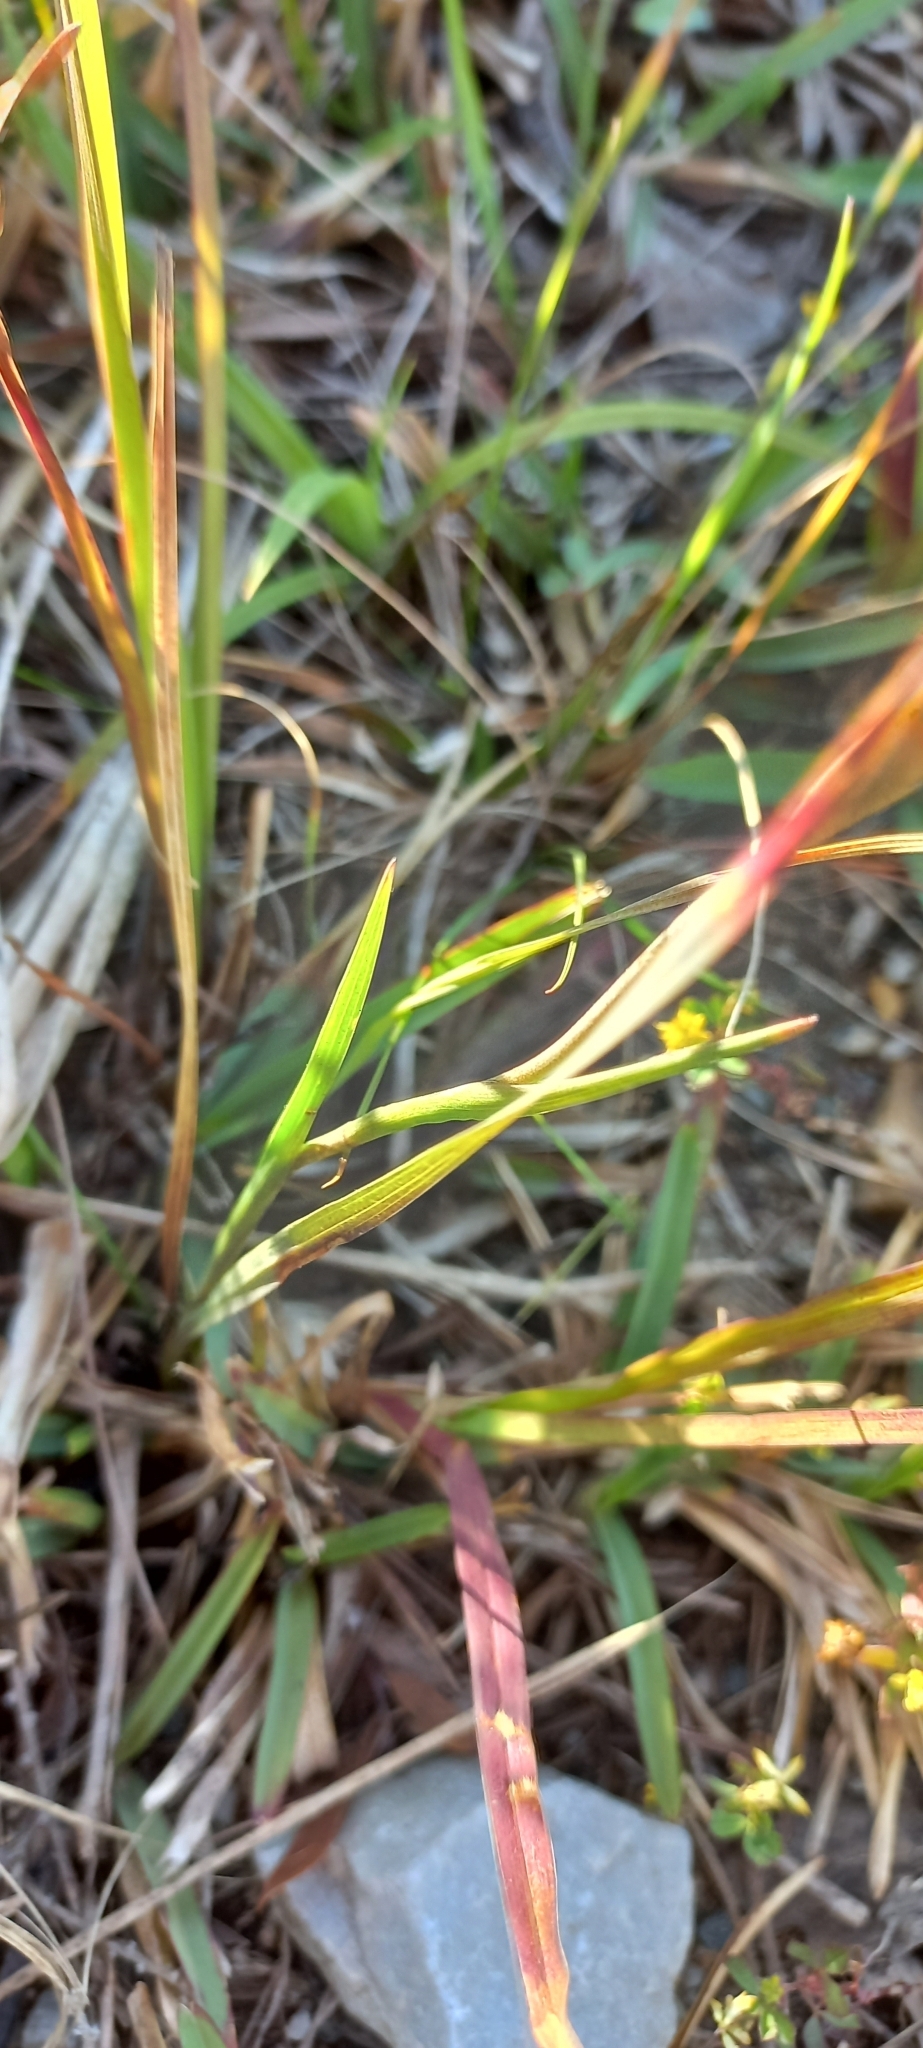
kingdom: Plantae
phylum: Tracheophyta
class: Liliopsida
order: Asparagales
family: Iridaceae
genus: Gladiolus
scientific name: Gladiolus carneus
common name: Painted-lady
